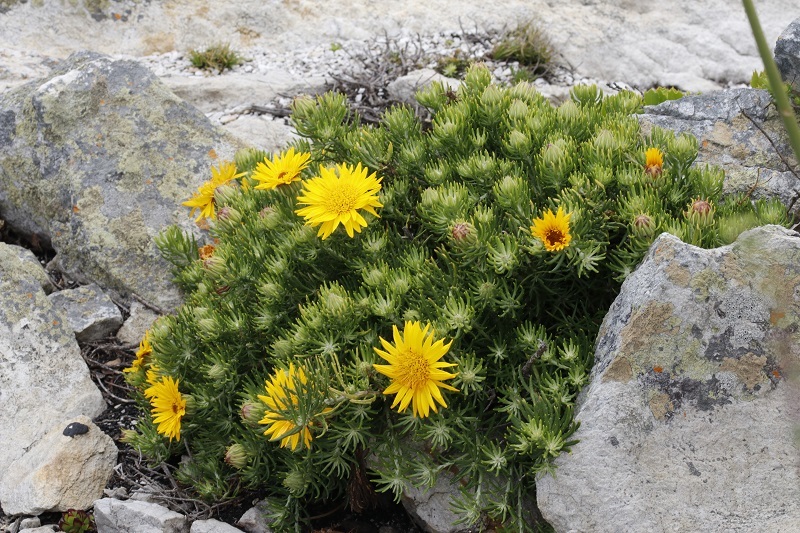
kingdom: Plantae
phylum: Tracheophyta
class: Magnoliopsida
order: Asterales
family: Asteraceae
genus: Heterolepis
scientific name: Heterolepis aliena
